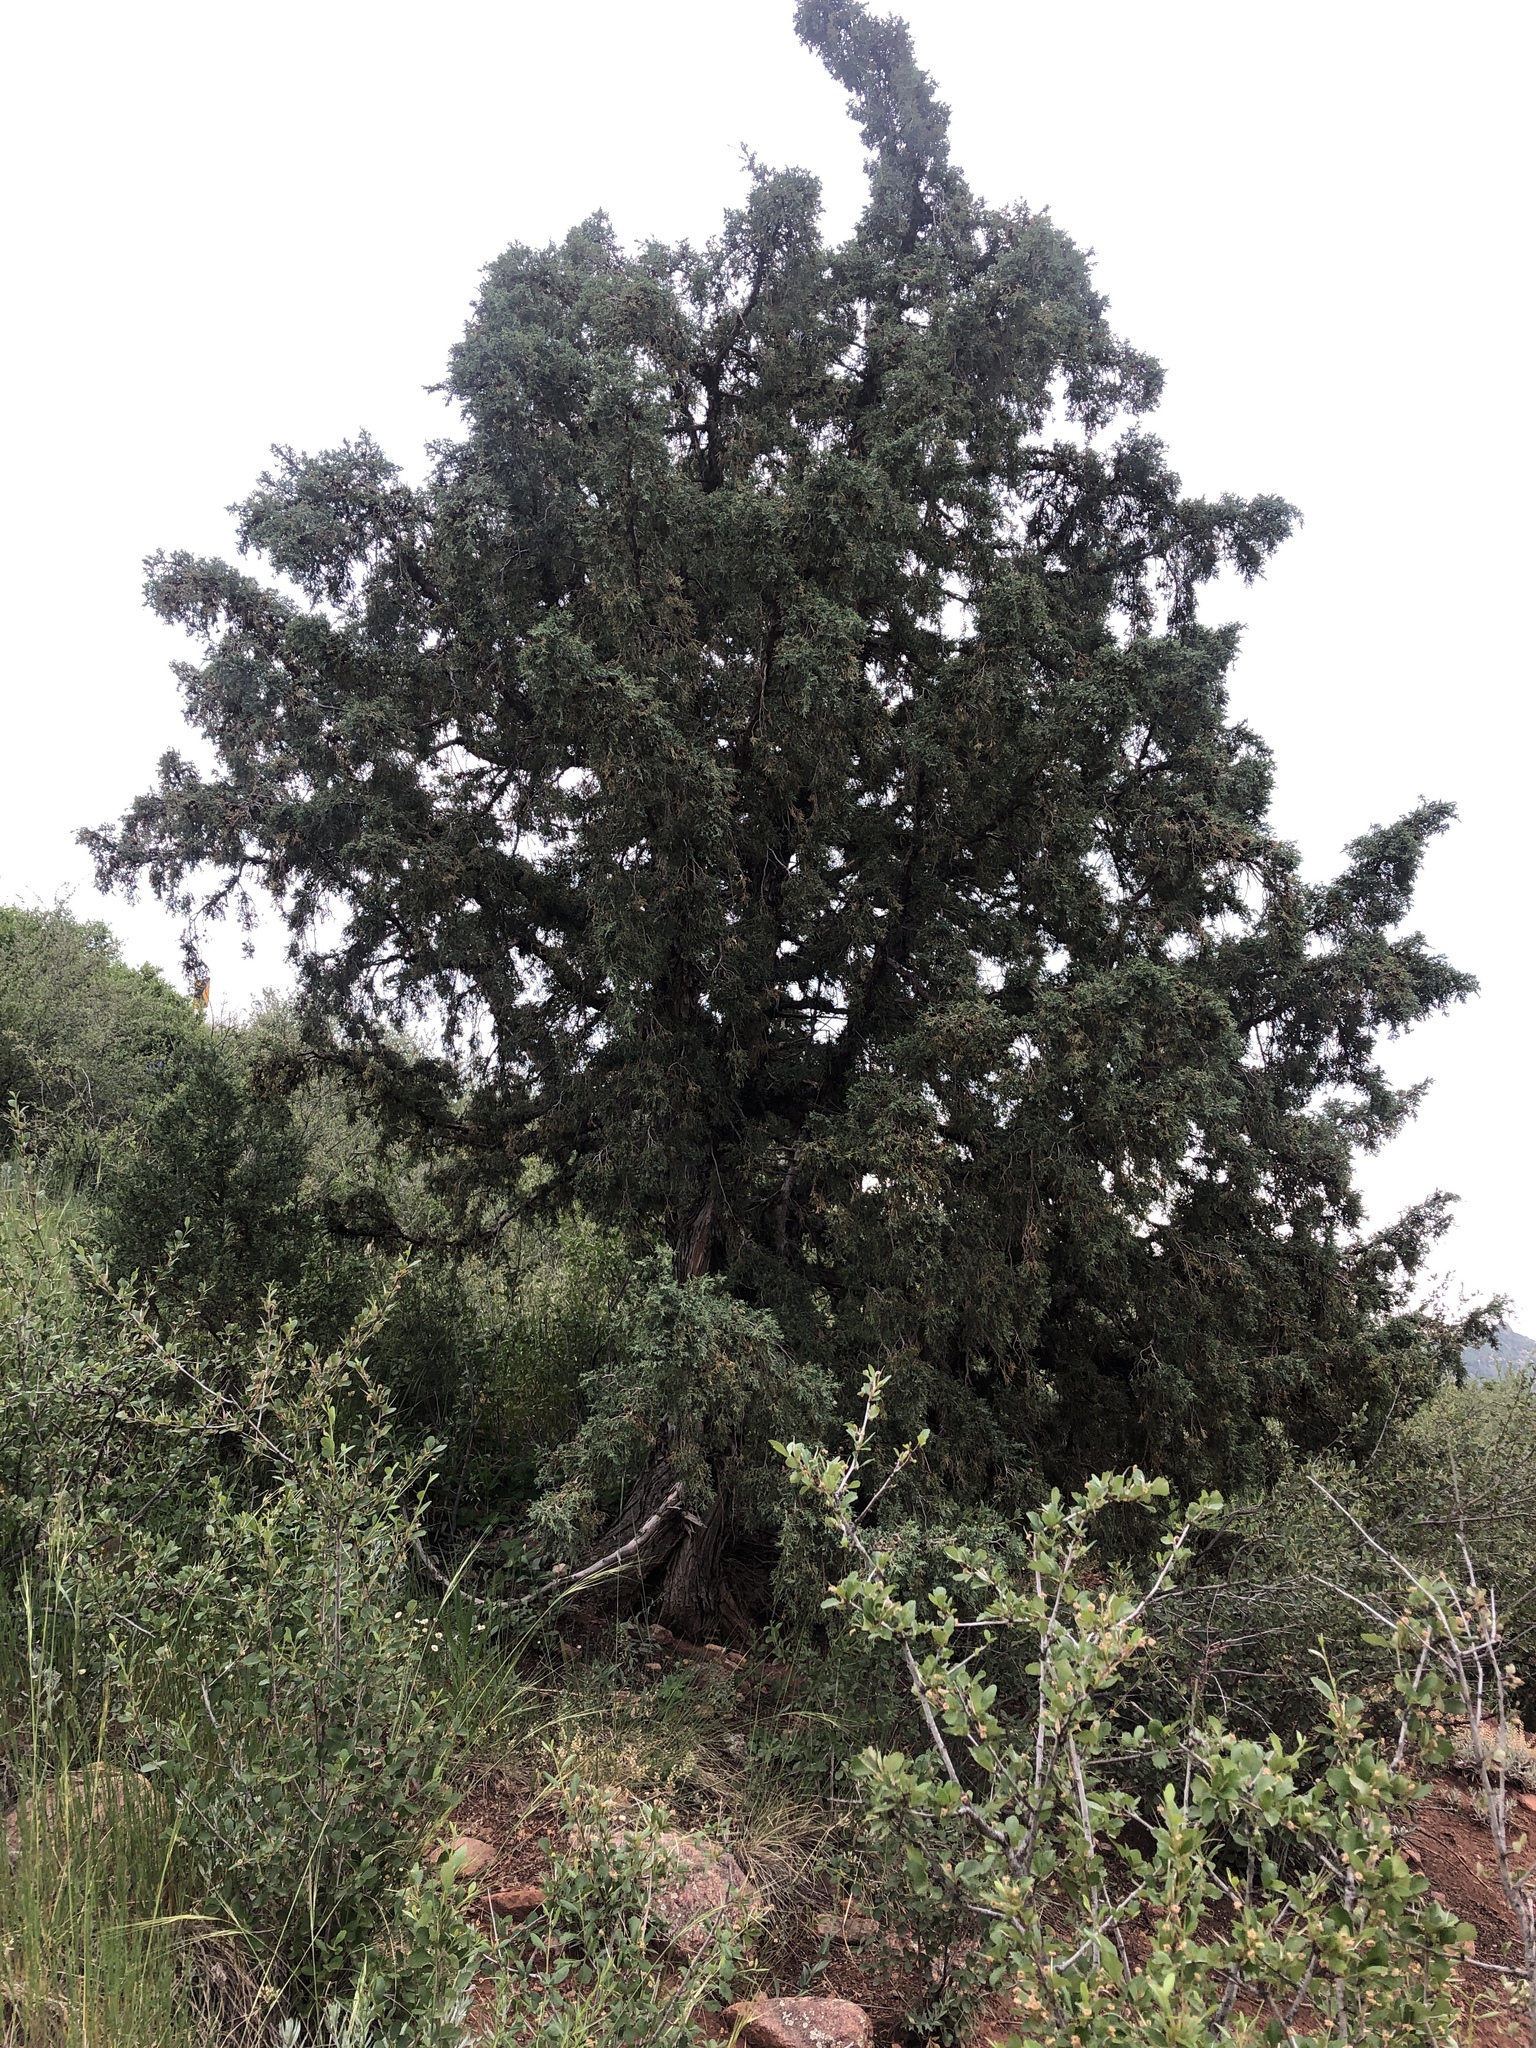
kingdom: Plantae
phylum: Tracheophyta
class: Pinopsida
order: Pinales
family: Cupressaceae
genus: Juniperus
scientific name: Juniperus scopulorum
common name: Rocky mountain juniper
